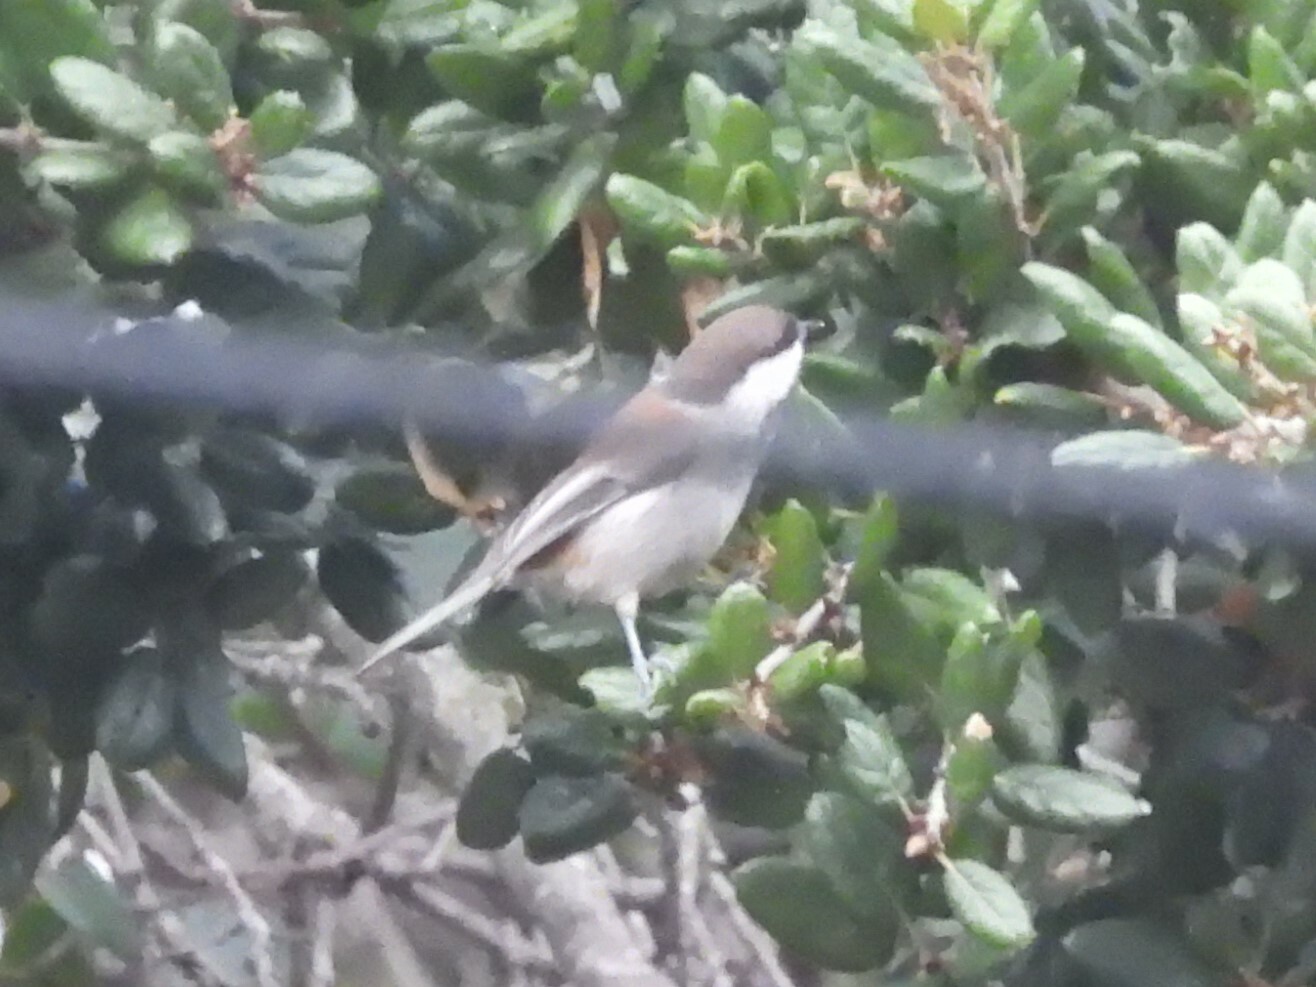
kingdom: Animalia
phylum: Chordata
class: Aves
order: Passeriformes
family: Paridae
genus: Poecile
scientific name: Poecile rufescens
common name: Chestnut-backed chickadee
